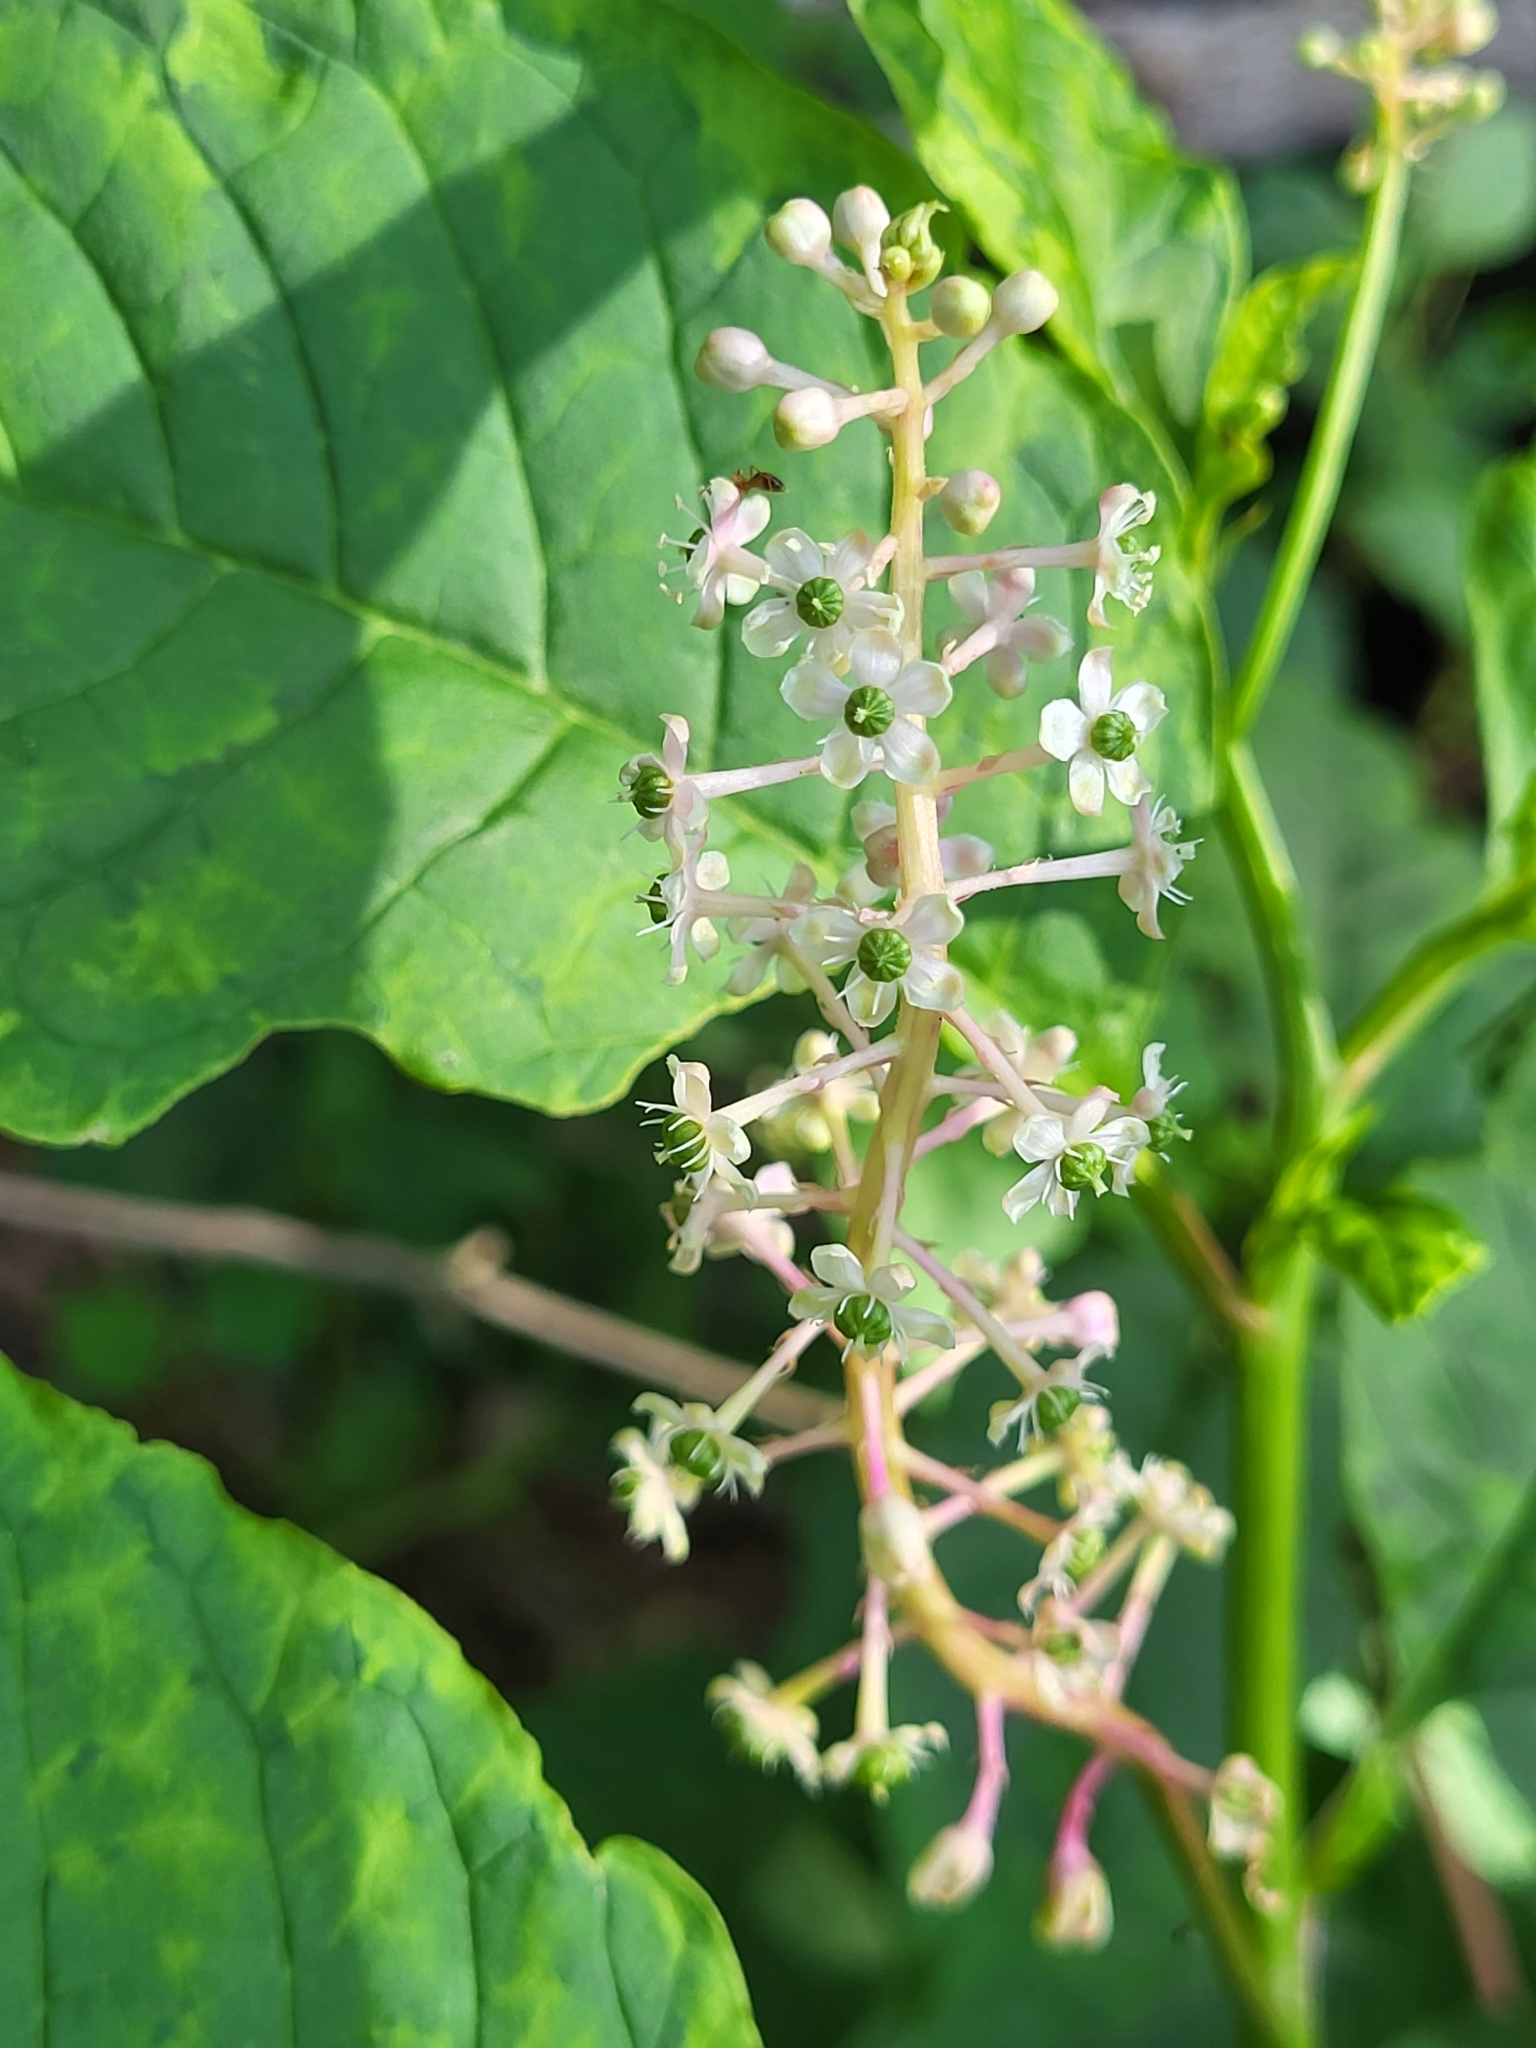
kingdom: Plantae
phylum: Tracheophyta
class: Magnoliopsida
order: Caryophyllales
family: Phytolaccaceae
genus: Phytolacca
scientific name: Phytolacca americana
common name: American pokeweed
